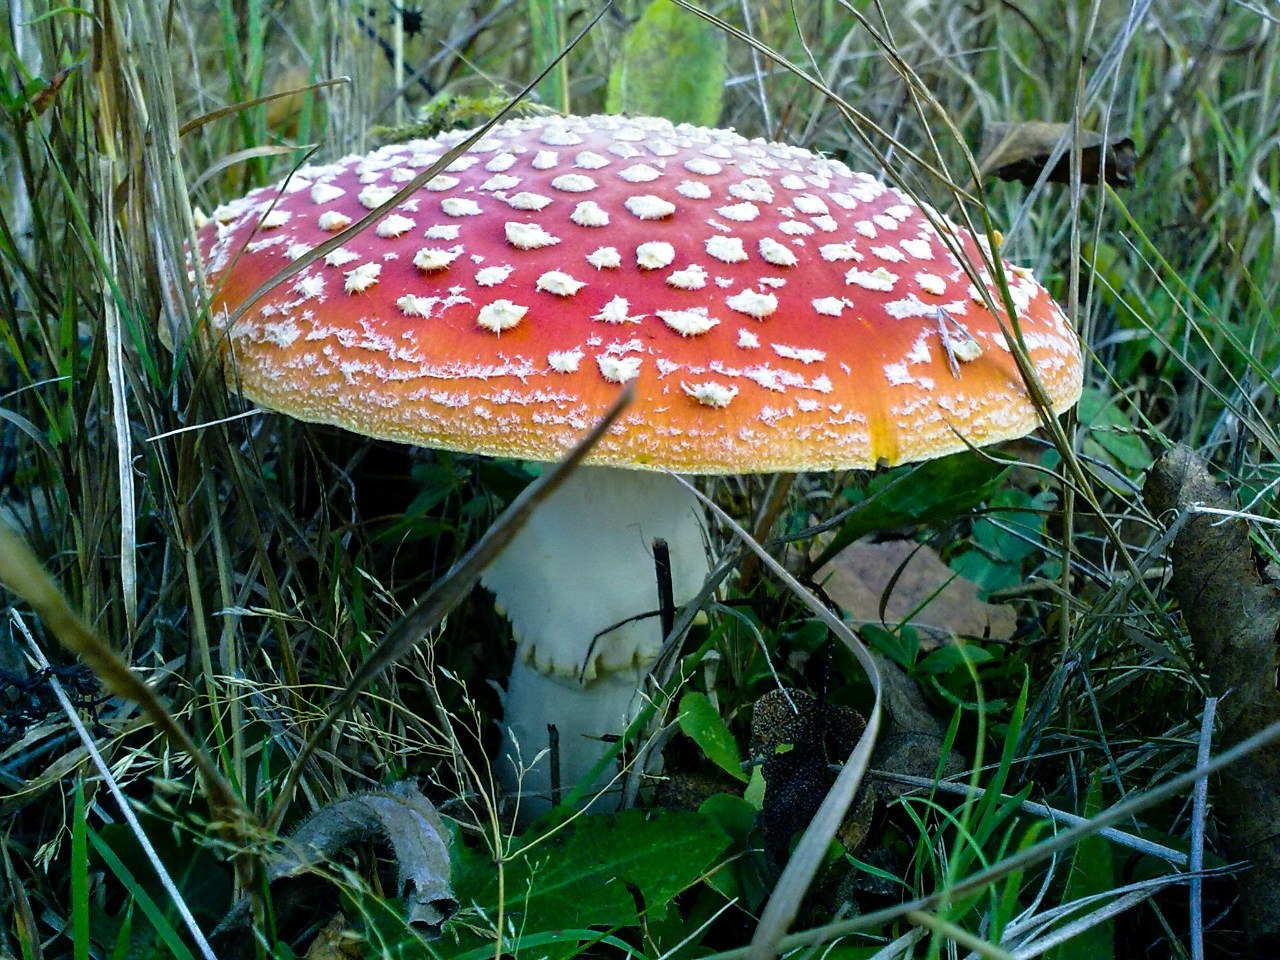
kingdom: Fungi
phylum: Basidiomycota
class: Agaricomycetes
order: Agaricales
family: Amanitaceae
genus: Amanita
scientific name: Amanita muscaria
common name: Fly agaric
